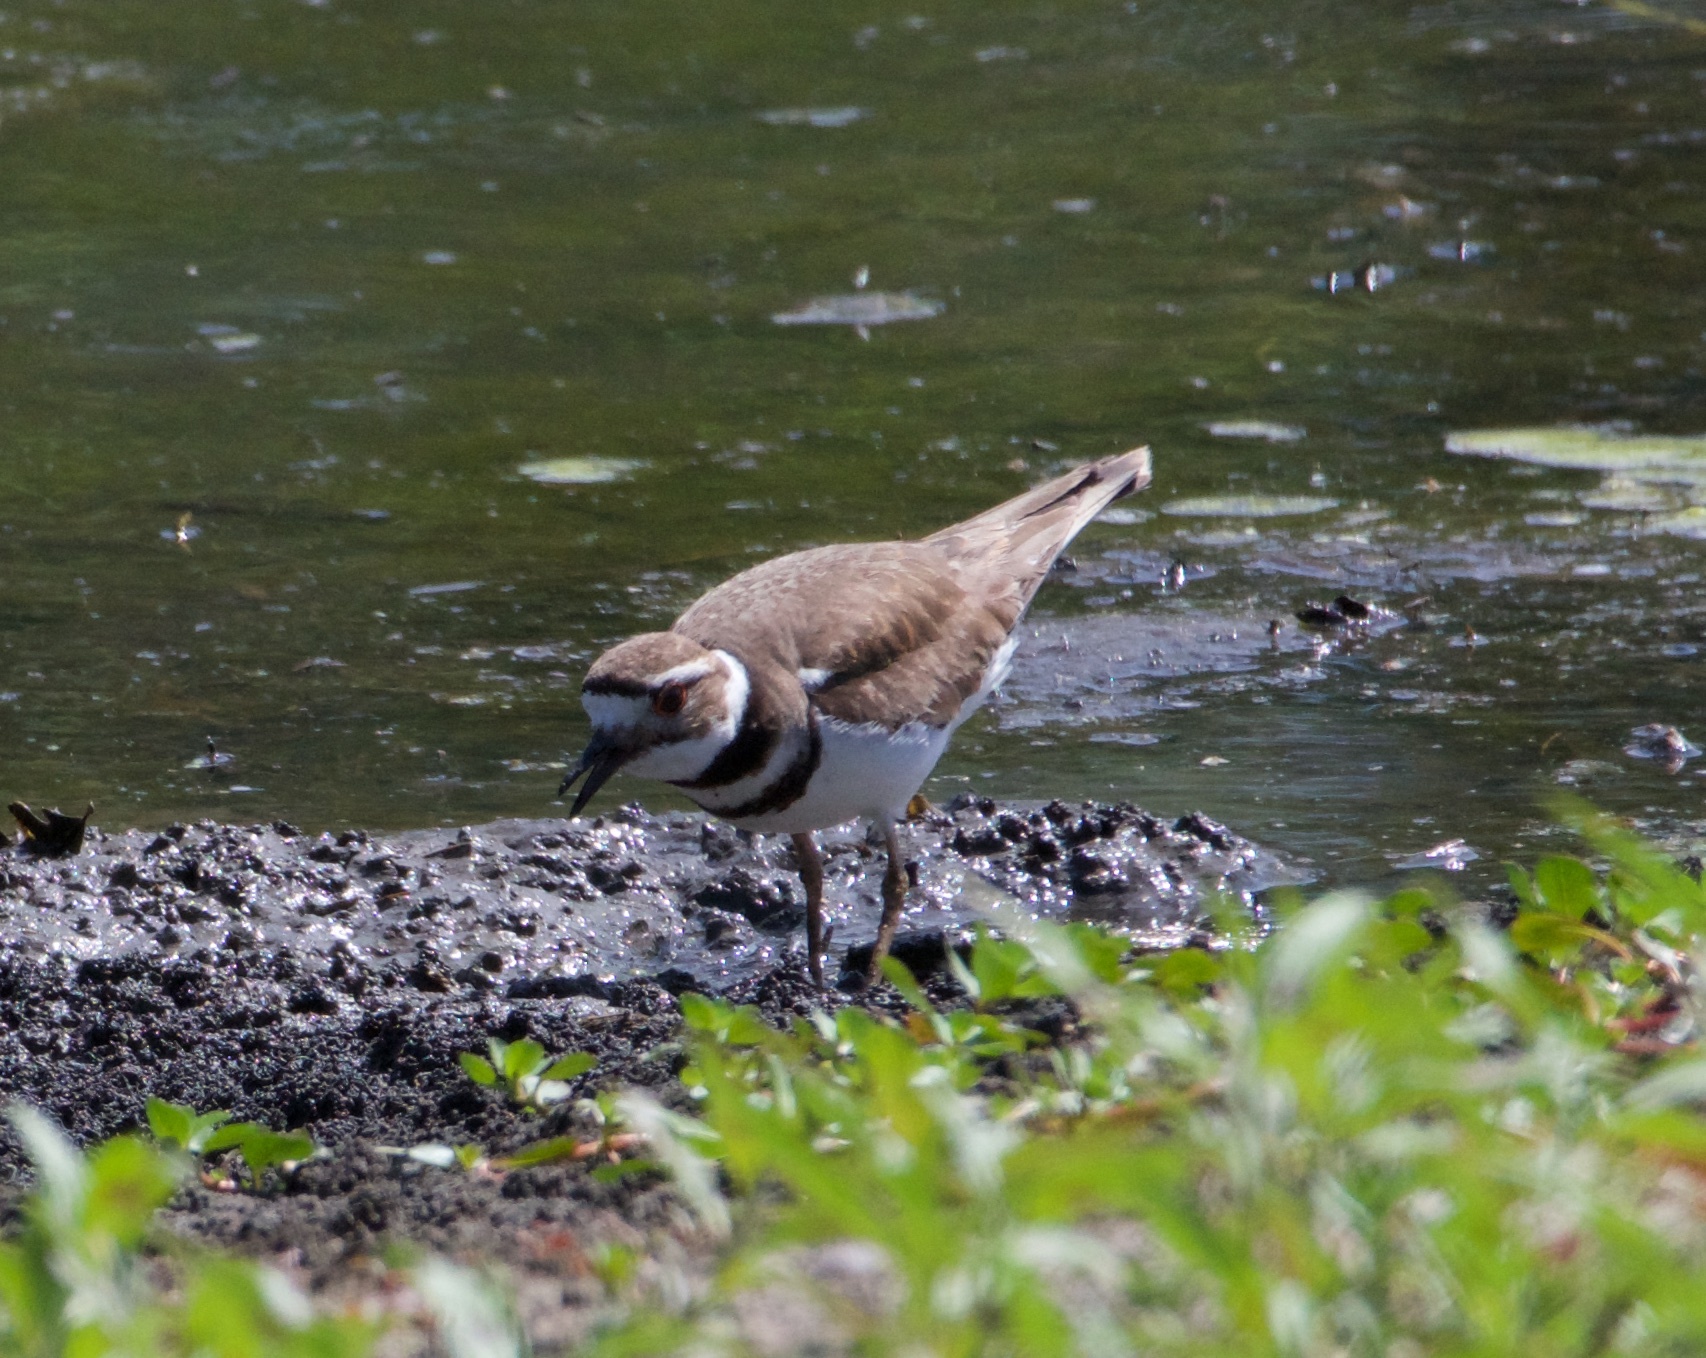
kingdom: Animalia
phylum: Chordata
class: Aves
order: Charadriiformes
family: Charadriidae
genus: Charadrius
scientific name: Charadrius vociferus
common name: Killdeer
